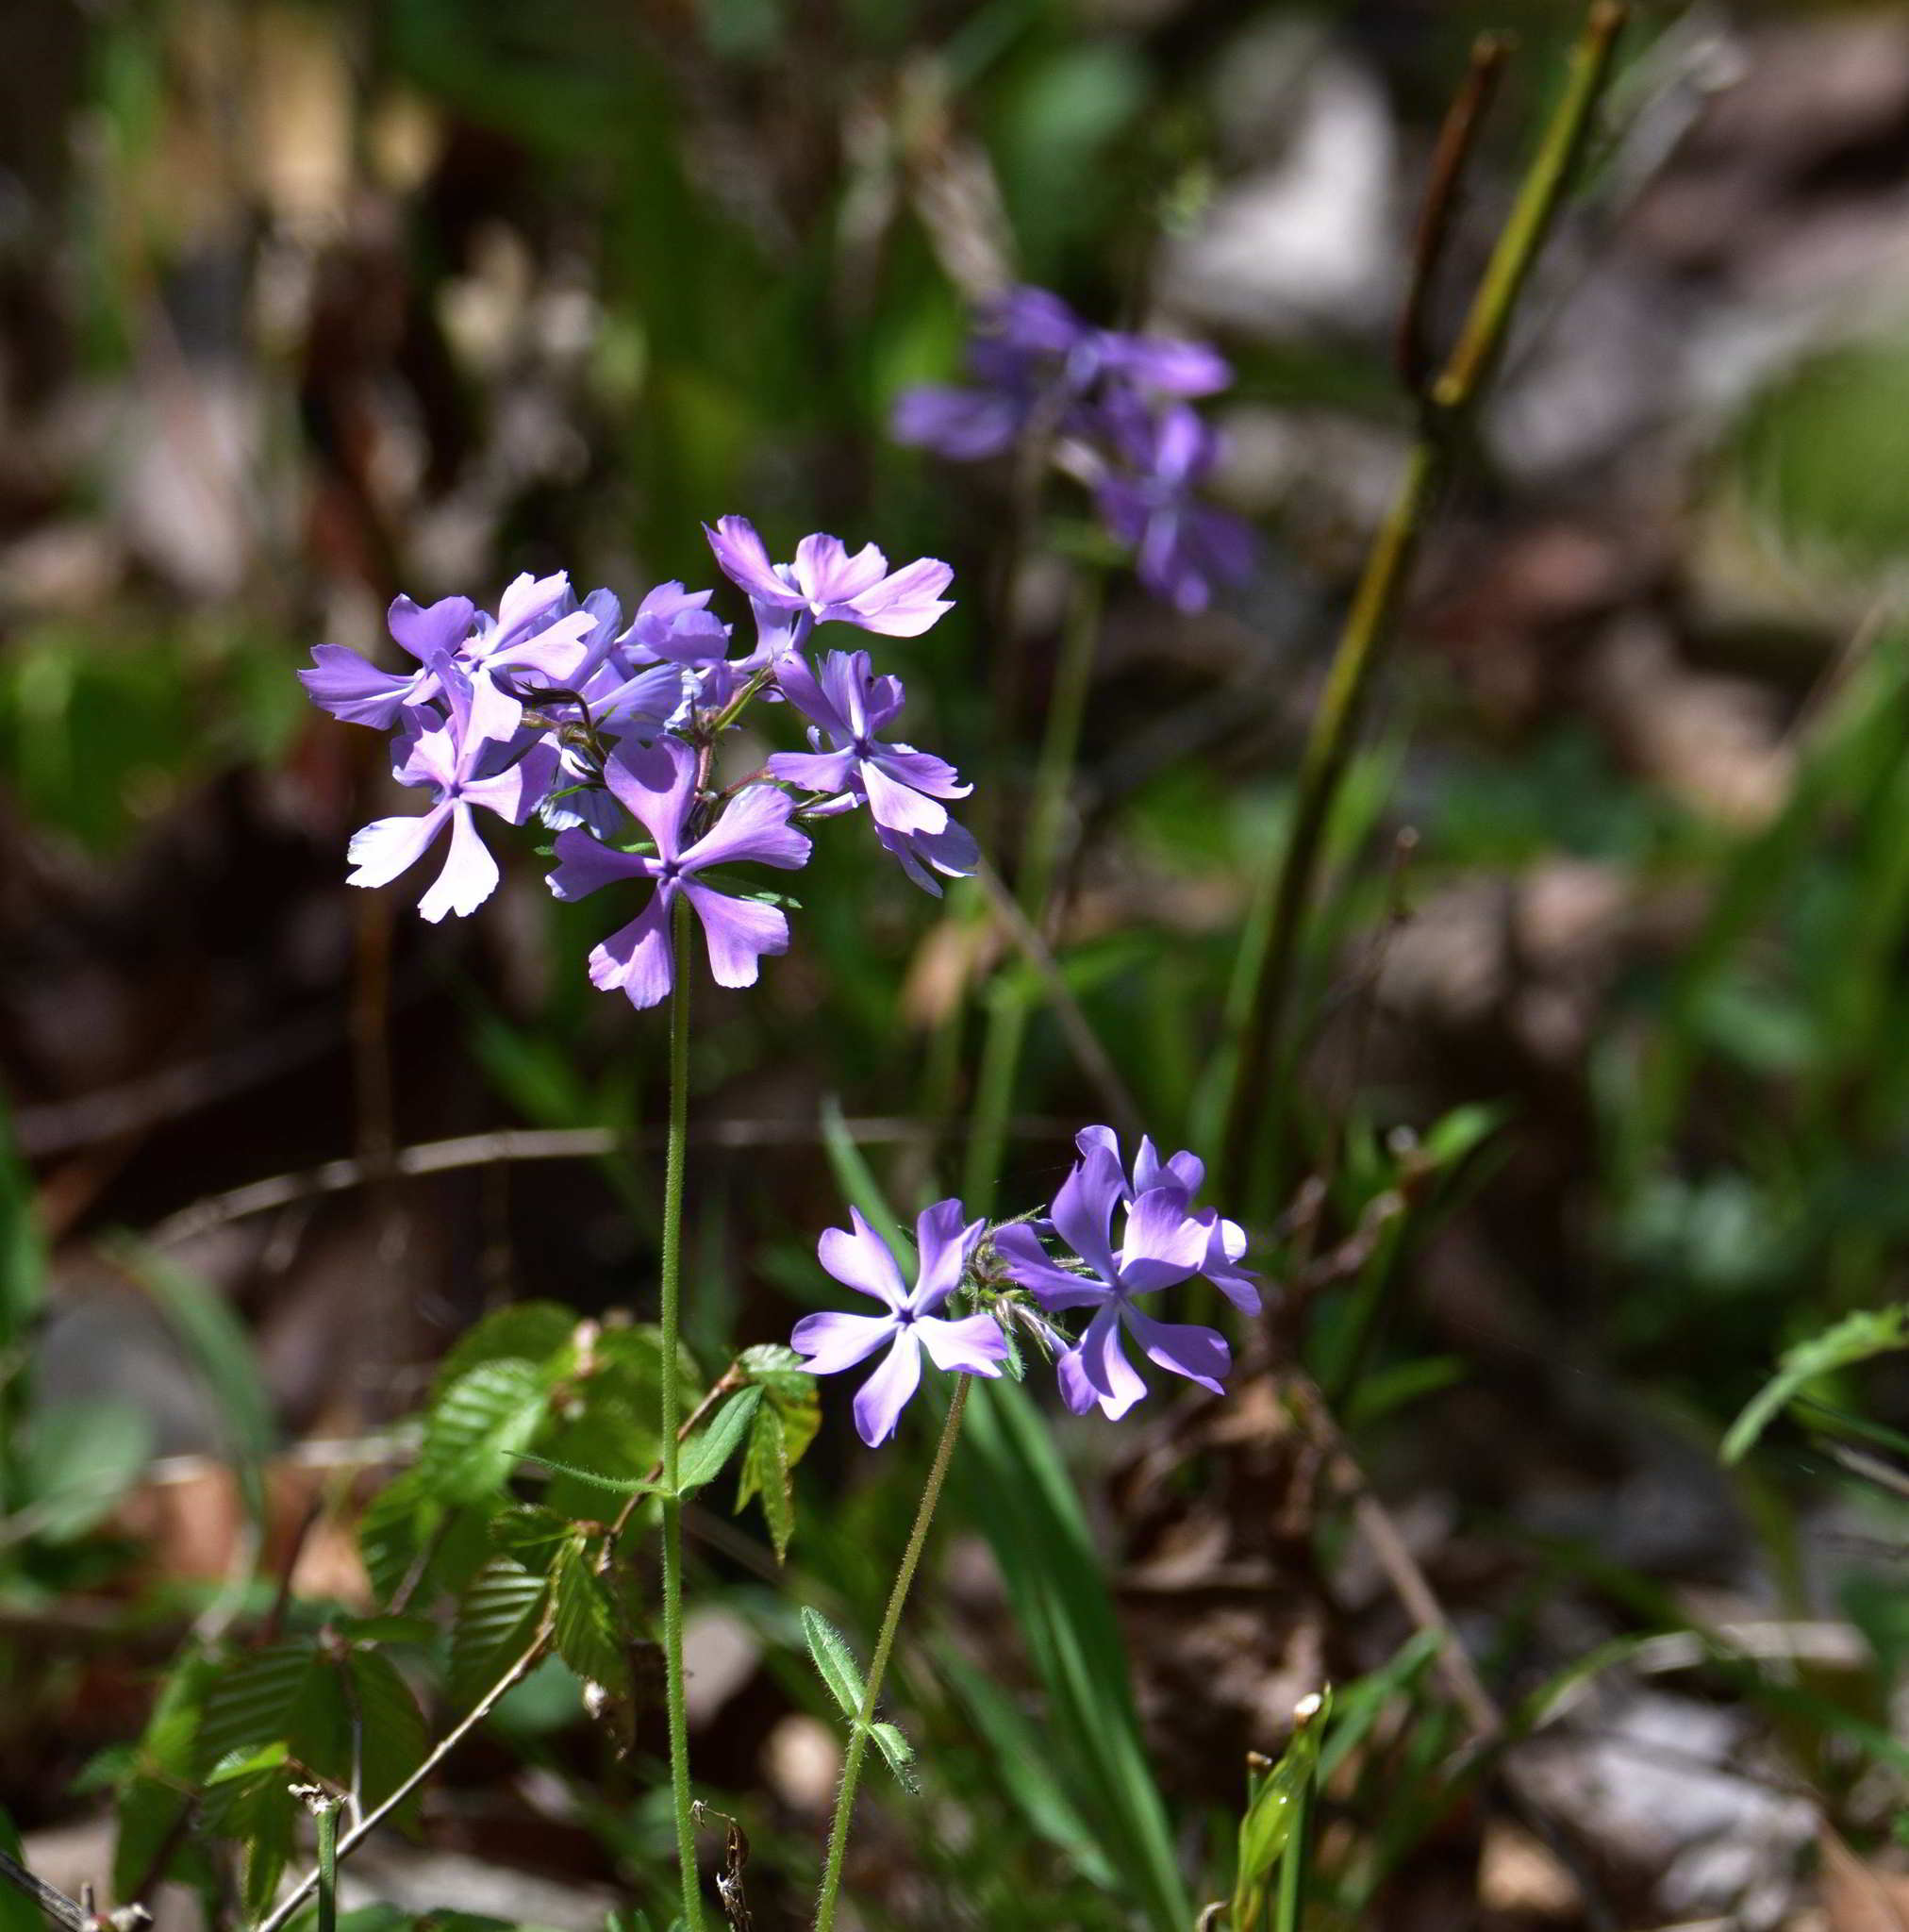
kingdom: Plantae
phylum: Tracheophyta
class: Magnoliopsida
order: Ericales
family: Polemoniaceae
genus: Phlox
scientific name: Phlox divaricata
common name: Blue phlox
